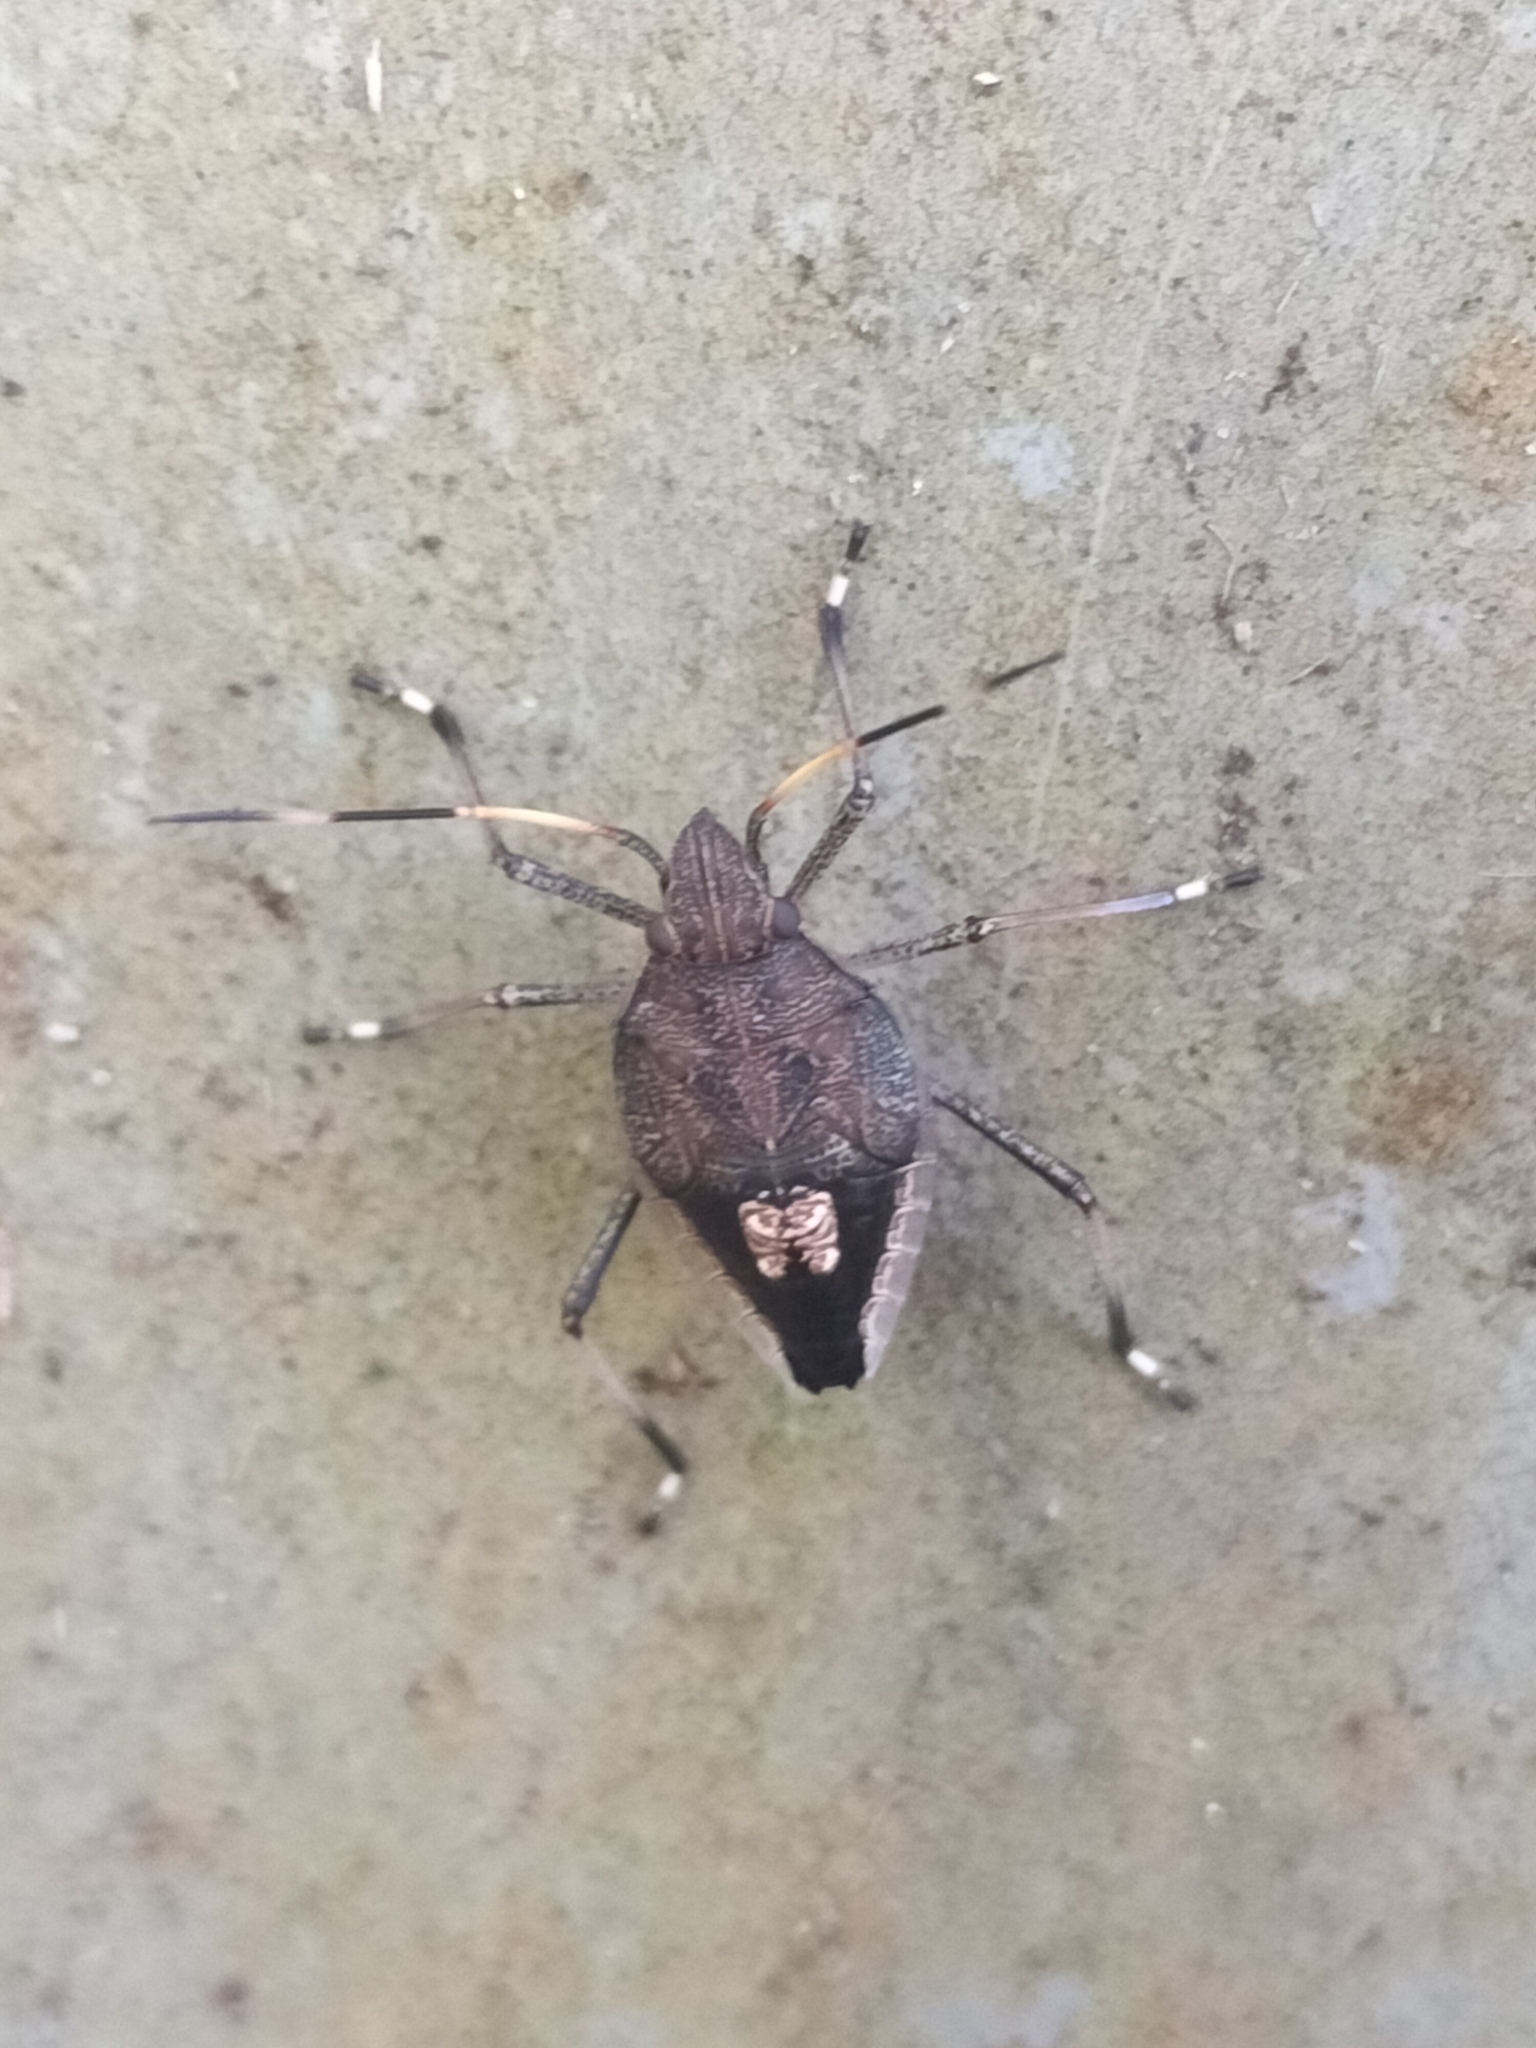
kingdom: Animalia
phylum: Arthropoda
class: Insecta
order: Hemiptera
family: Pentatomidae
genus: Poecilometis
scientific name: Poecilometis
